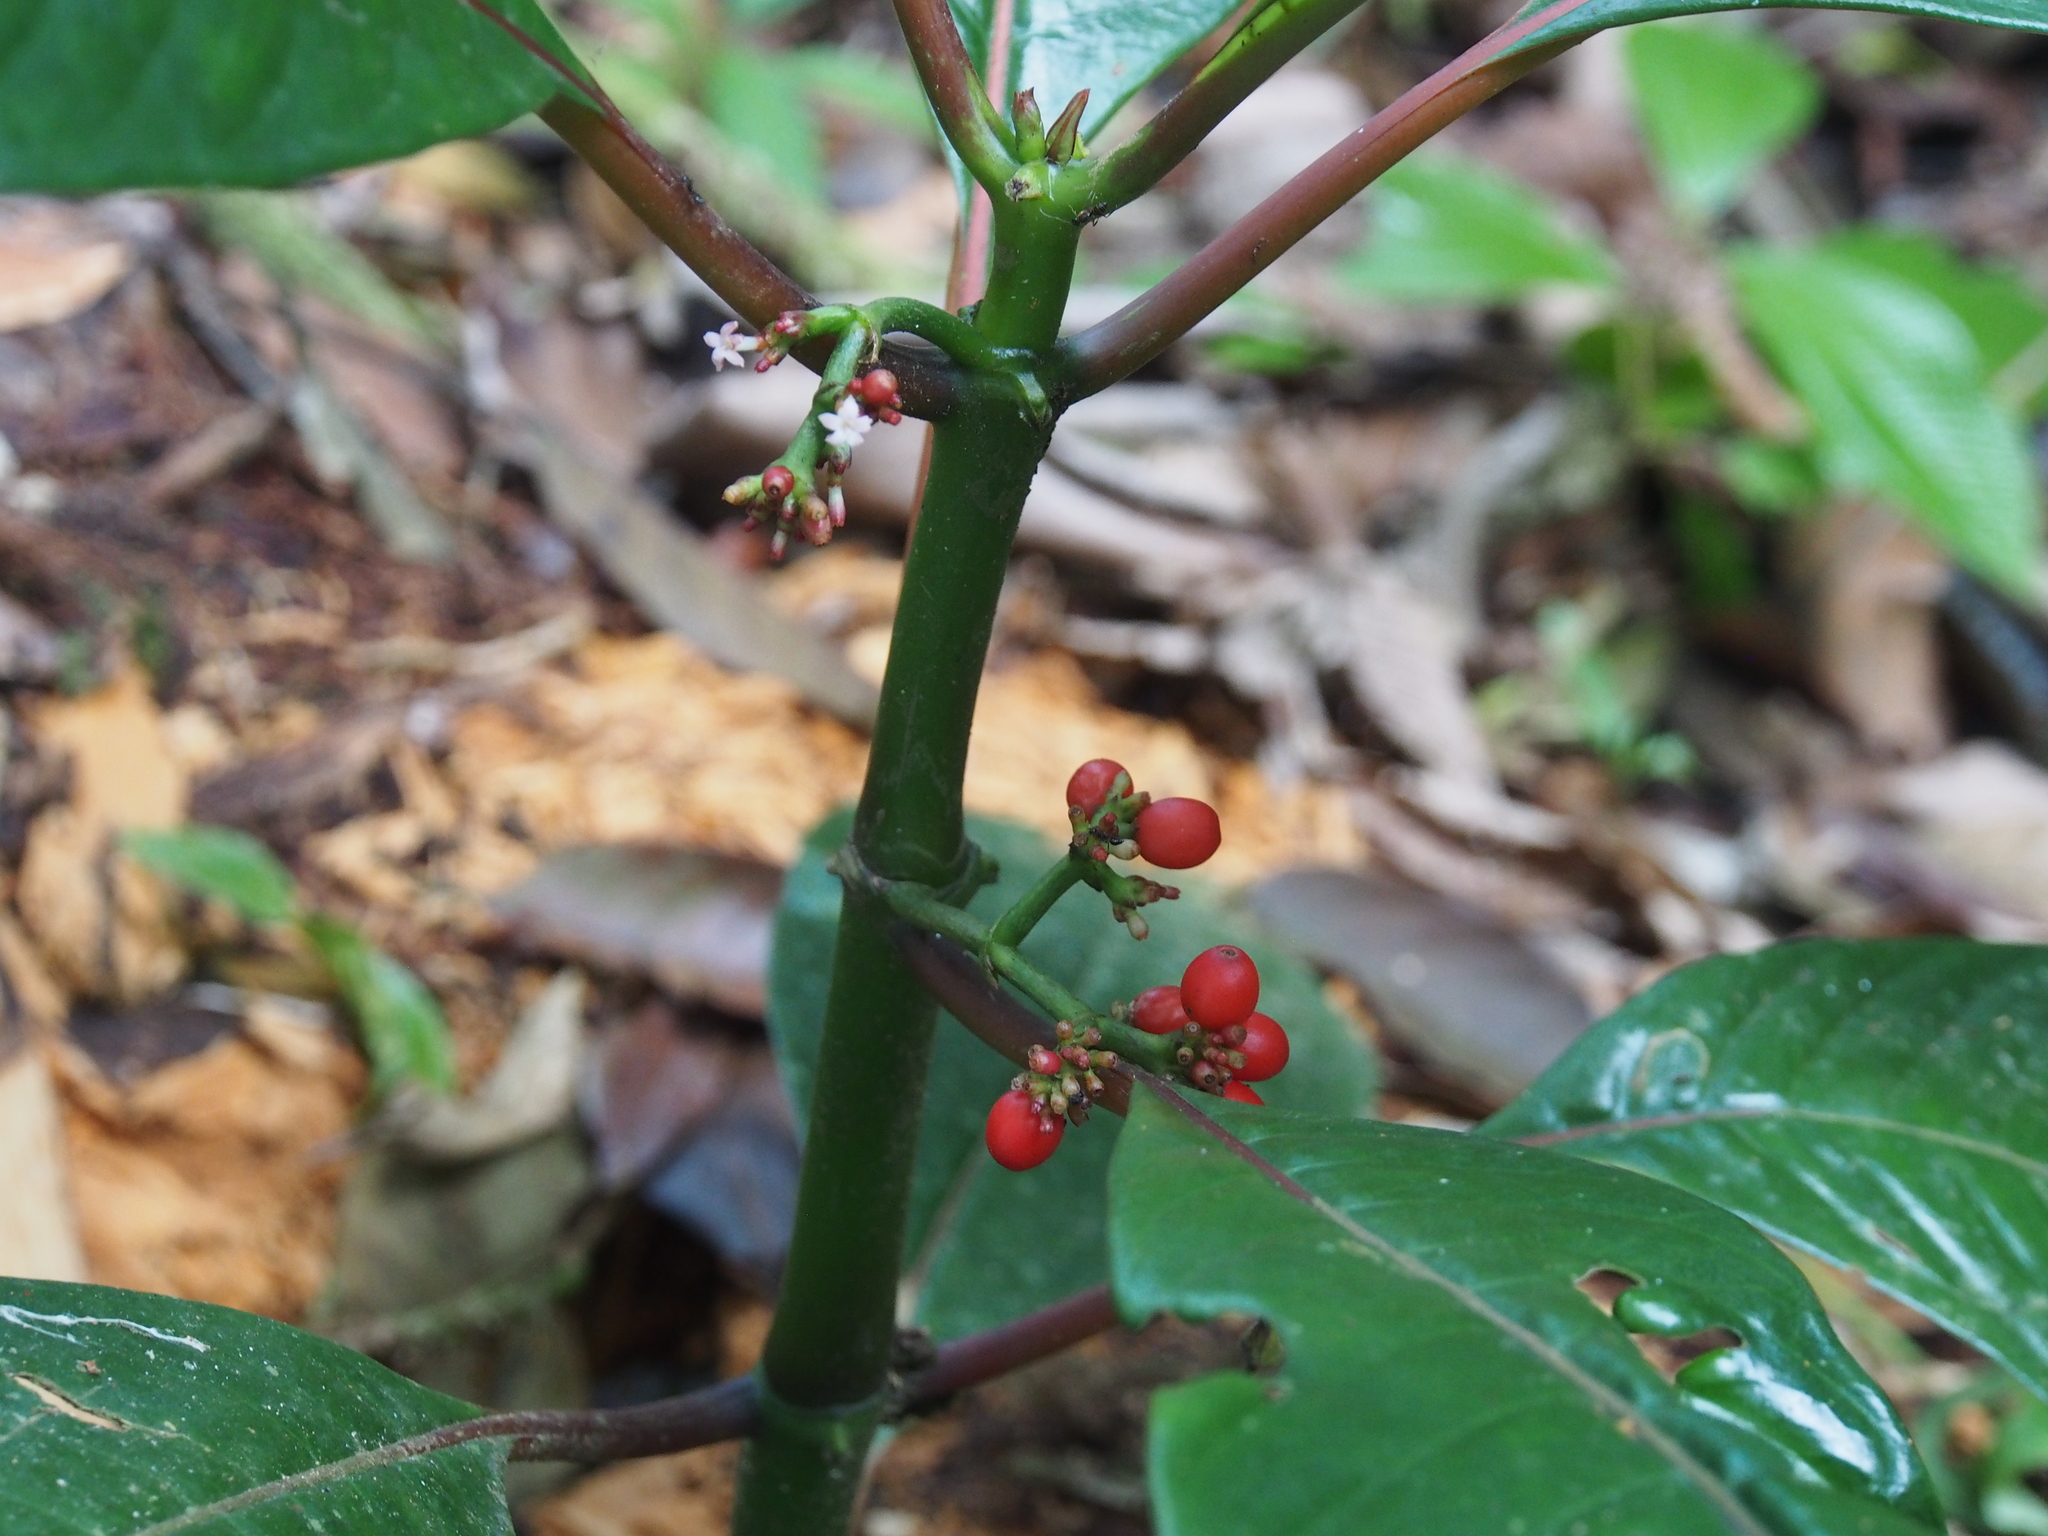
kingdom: Plantae
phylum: Tracheophyta
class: Magnoliopsida
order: Gentianales
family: Rubiaceae
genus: Notopleura
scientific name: Notopleura uliginosa
